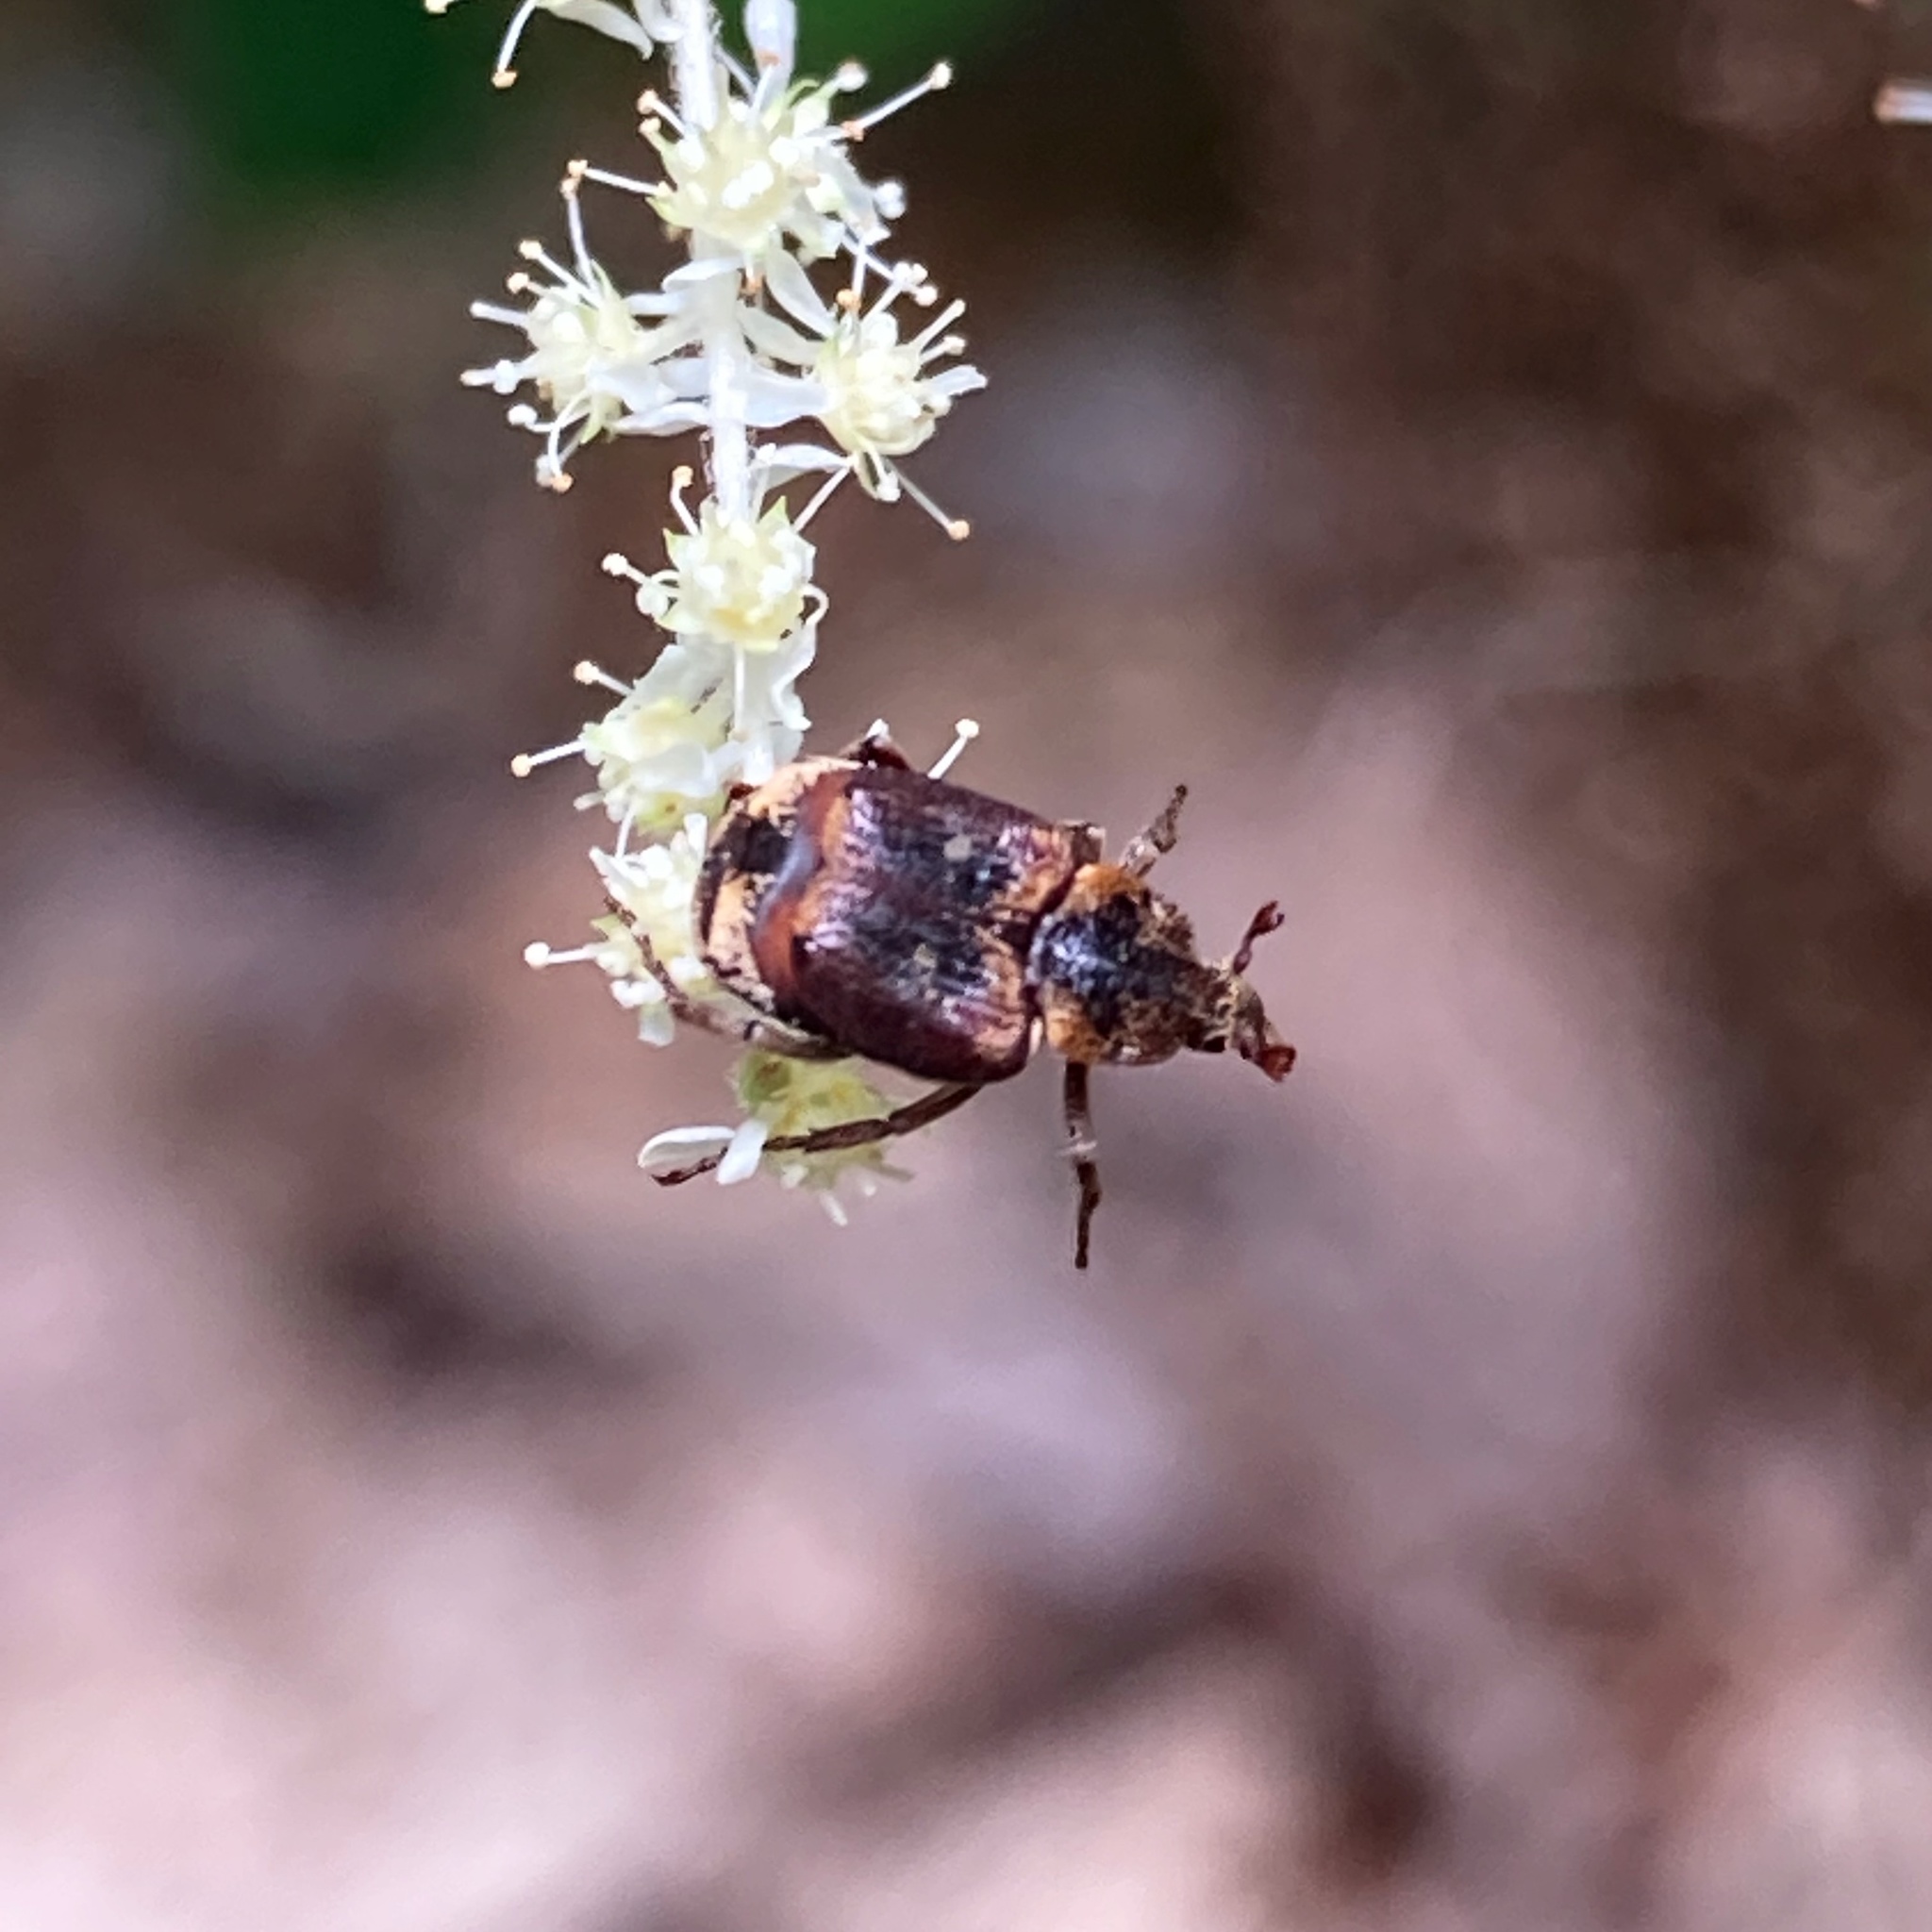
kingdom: Animalia
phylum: Arthropoda
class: Insecta
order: Coleoptera
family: Scarabaeidae
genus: Valgus
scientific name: Valgus canaliculatus
